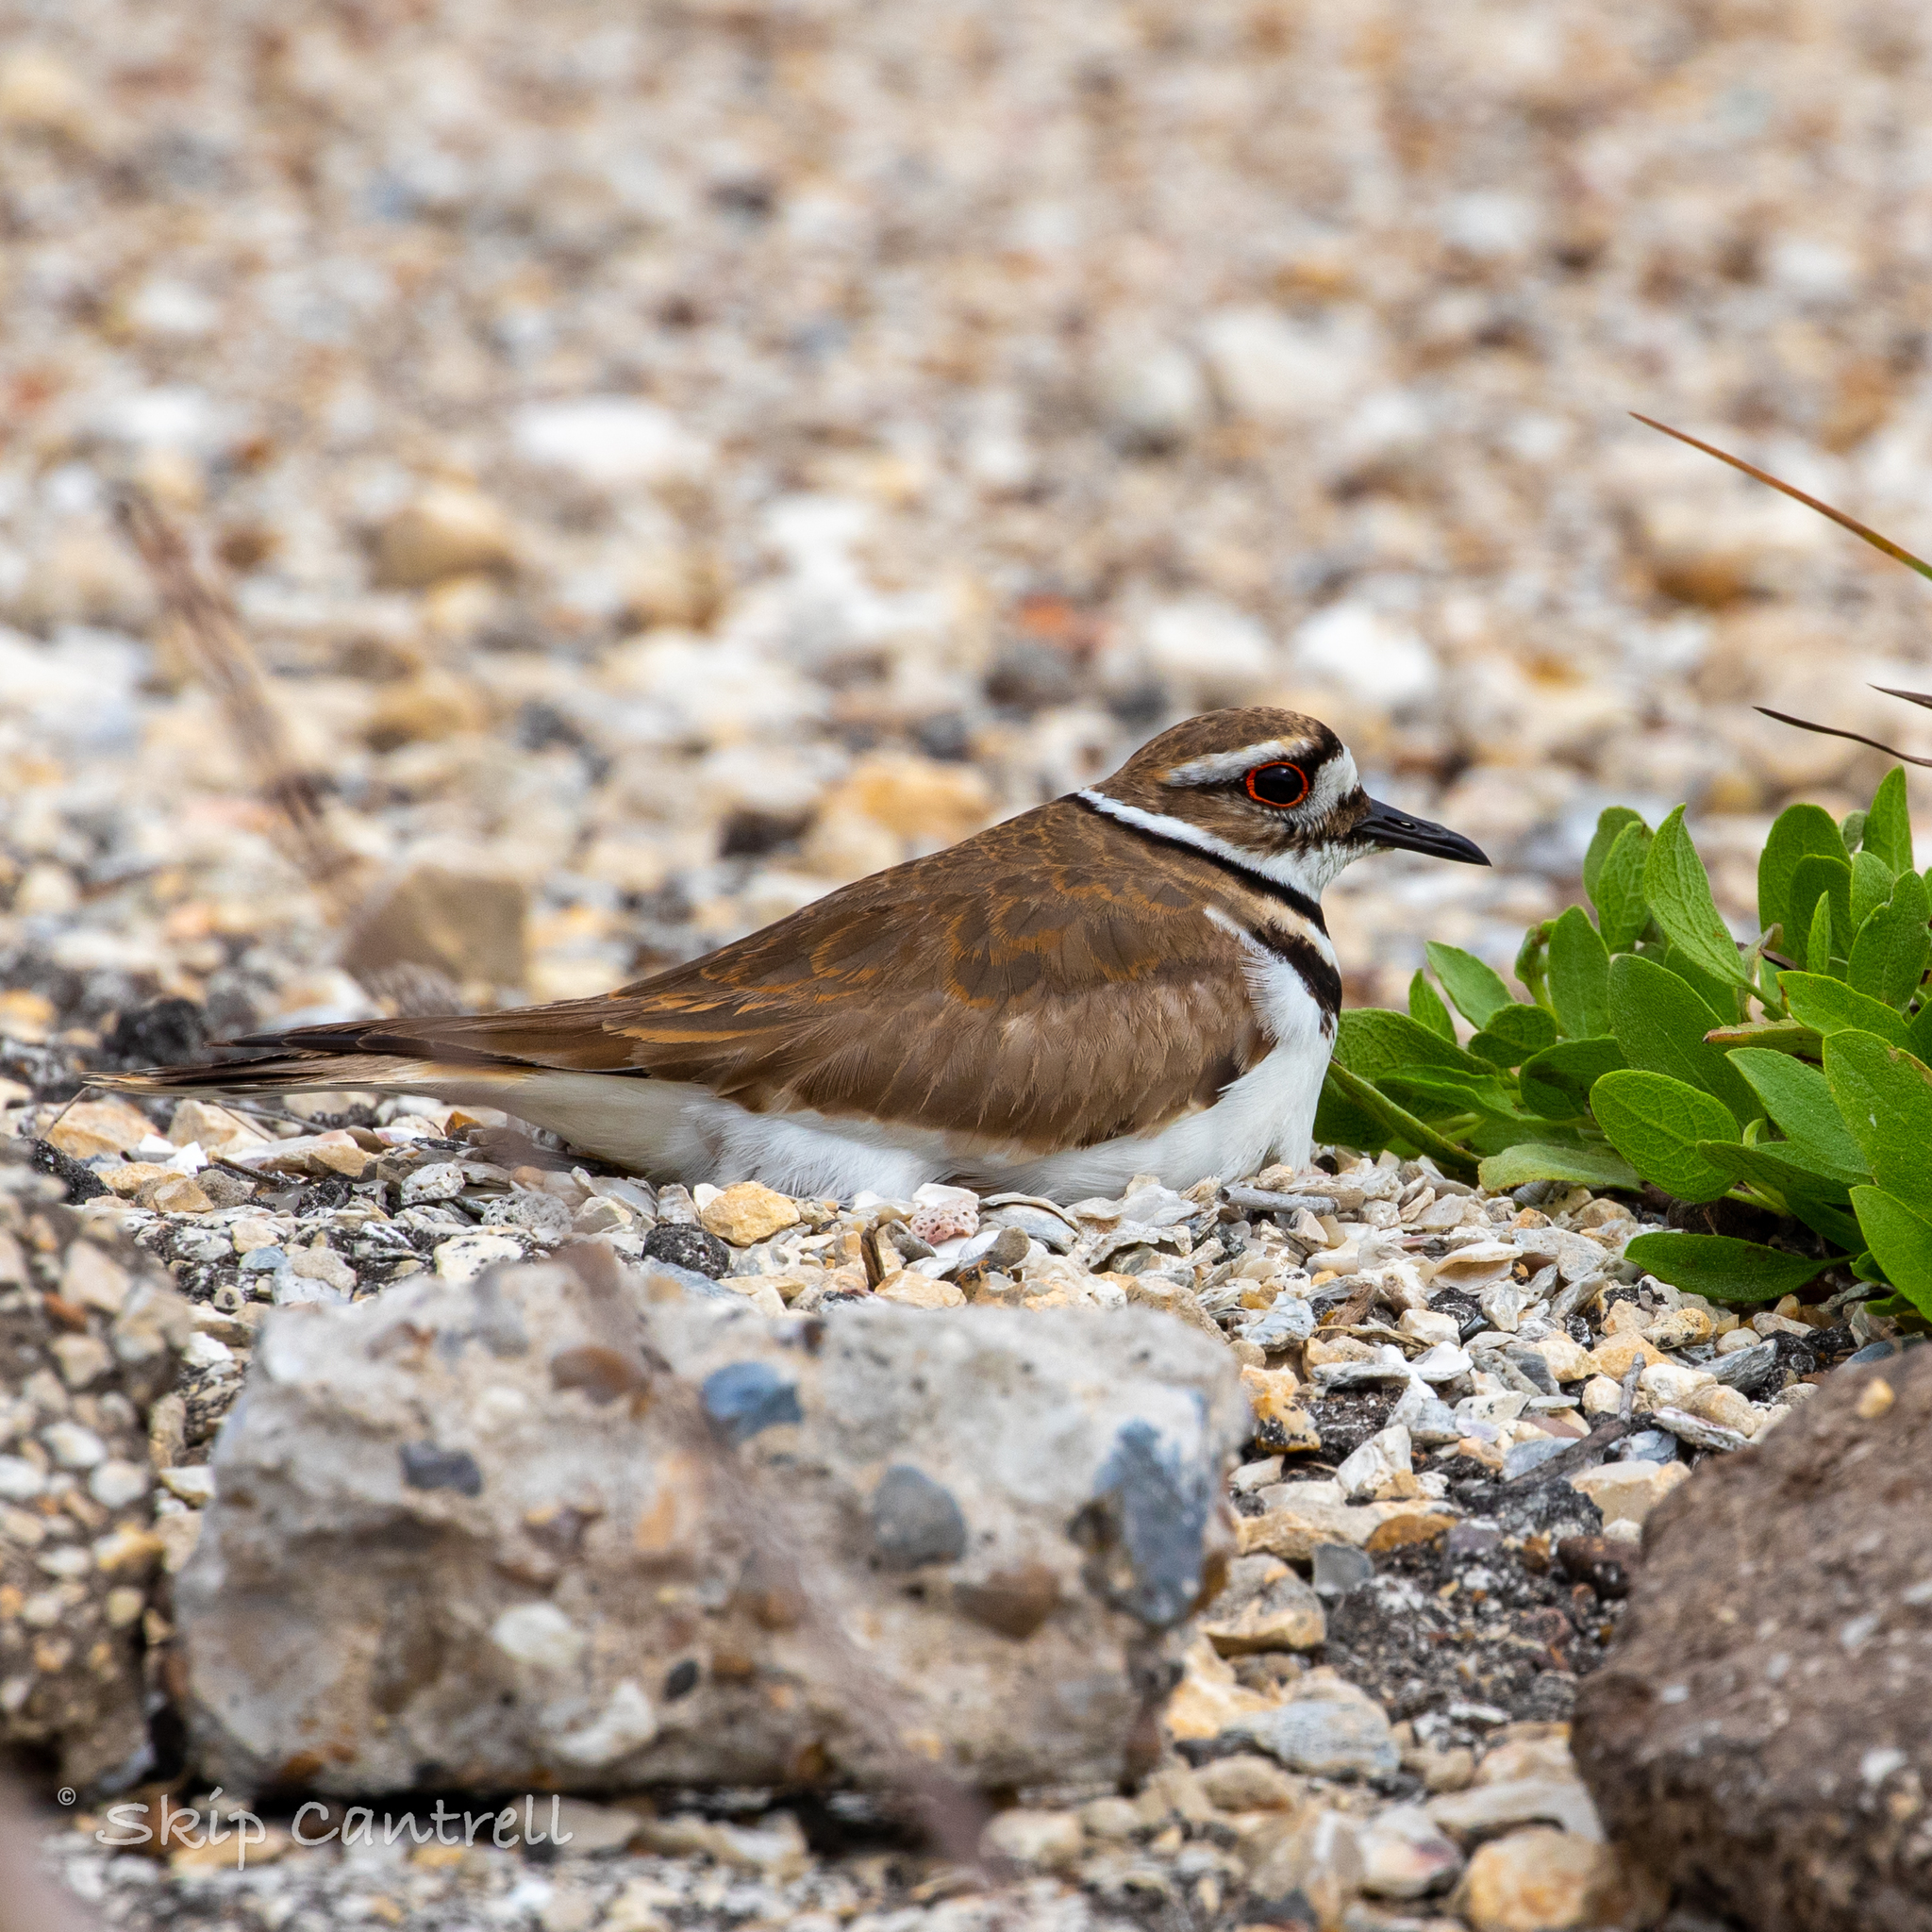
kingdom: Animalia
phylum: Chordata
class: Aves
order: Charadriiformes
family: Charadriidae
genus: Charadrius
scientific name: Charadrius vociferus
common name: Killdeer
